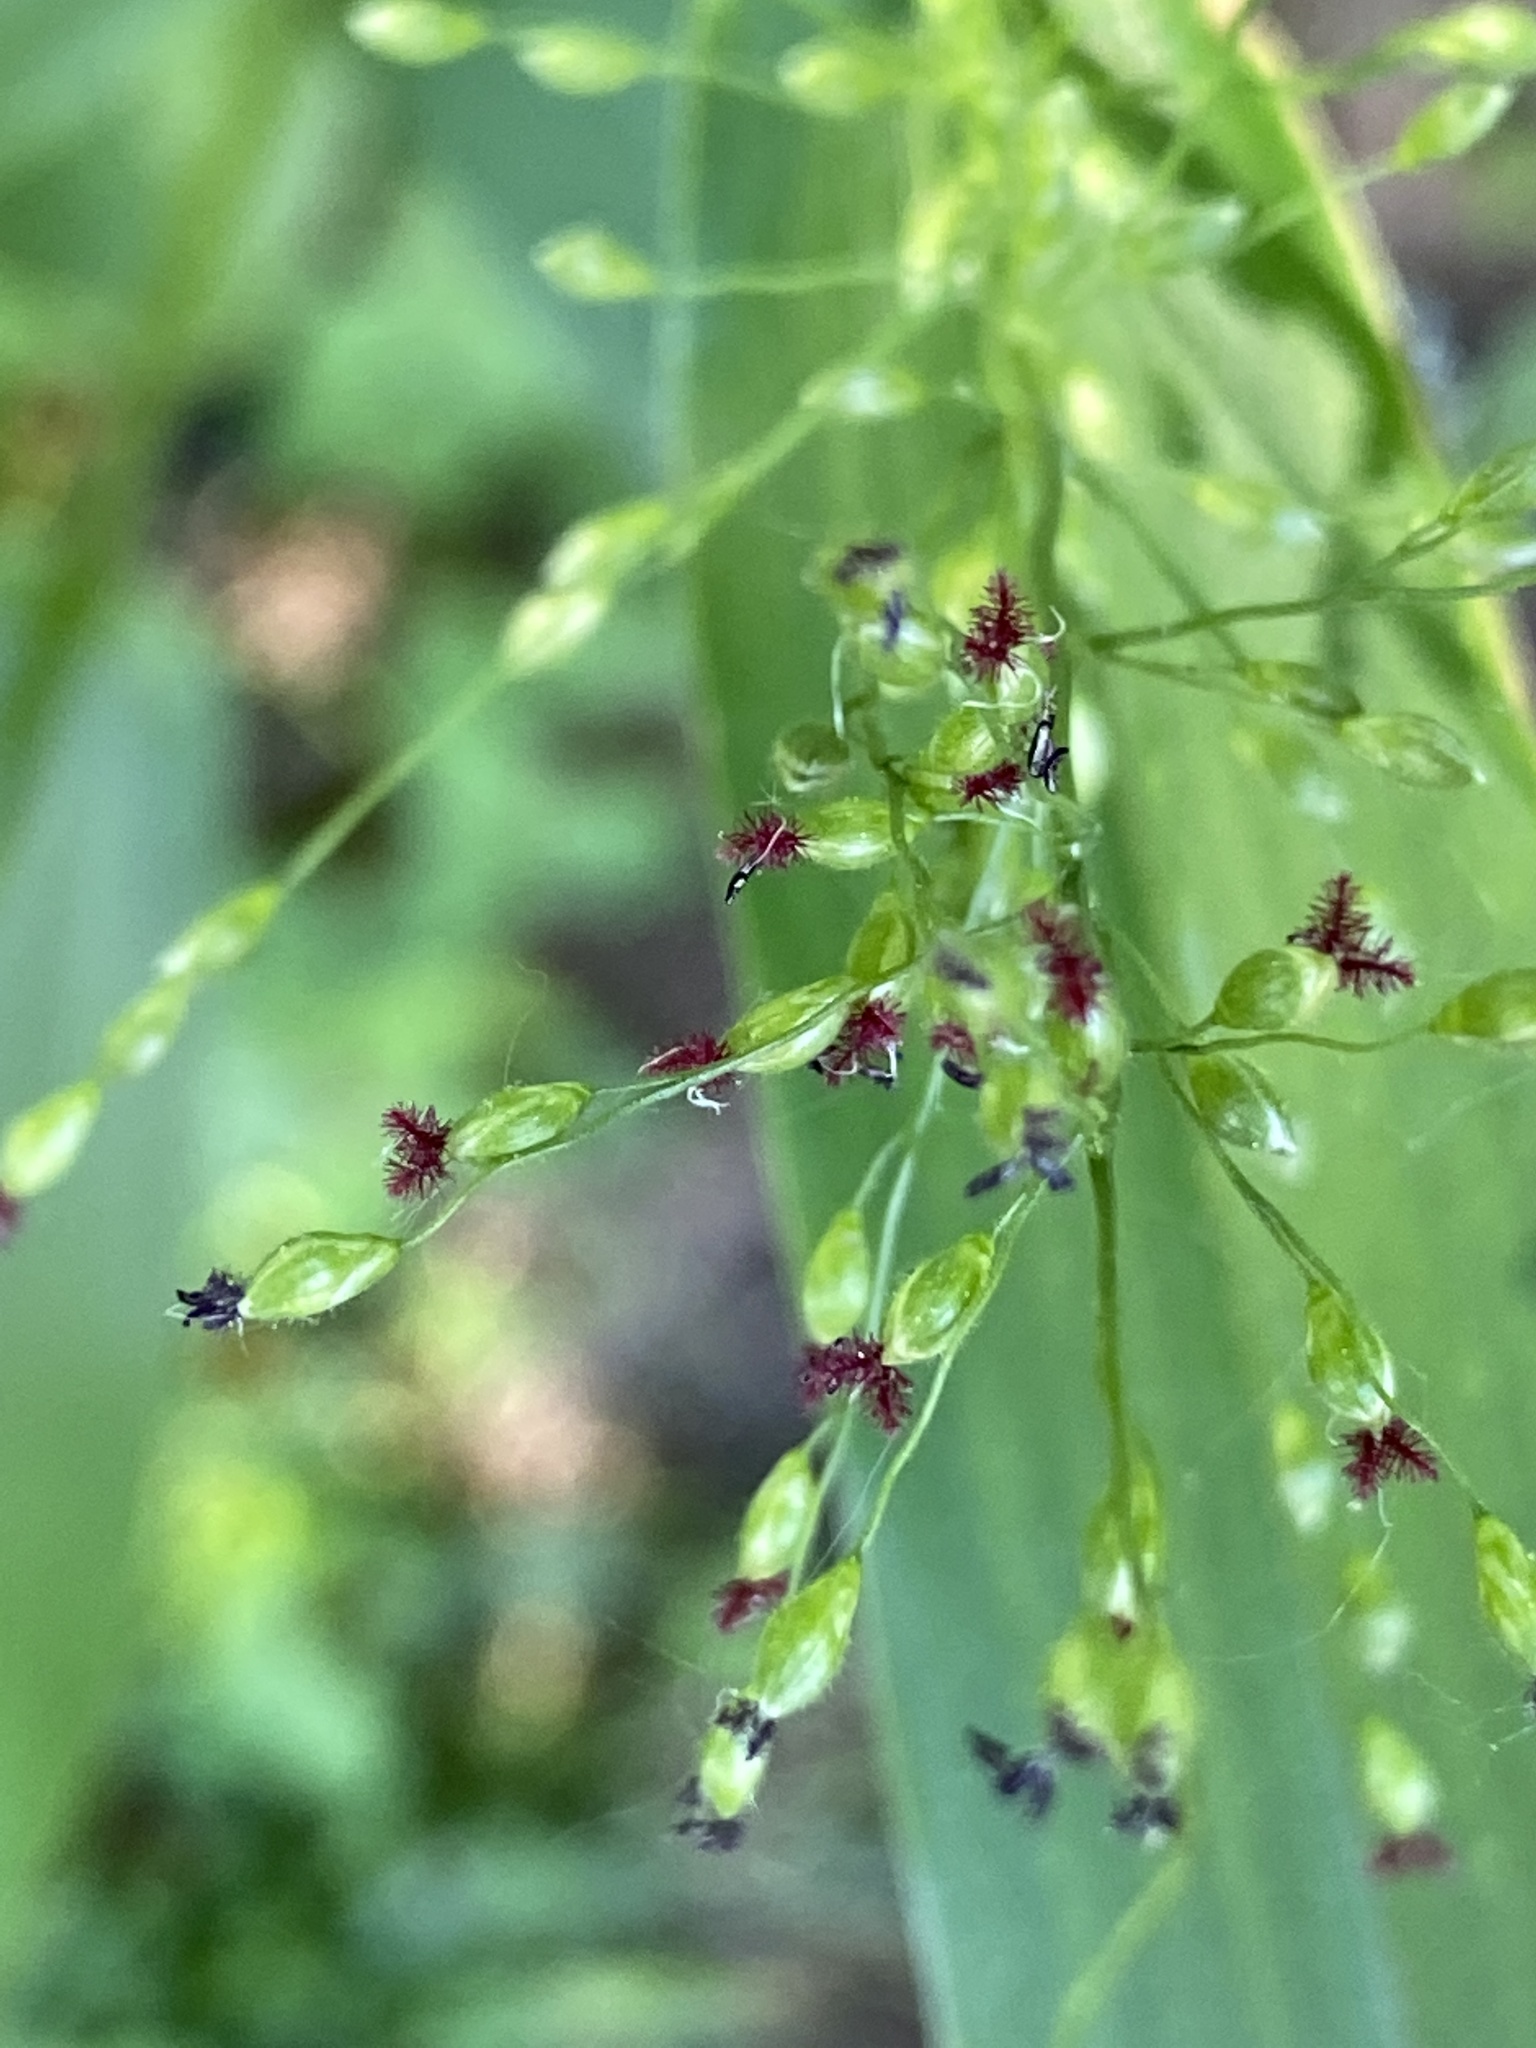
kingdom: Plantae
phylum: Tracheophyta
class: Liliopsida
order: Poales
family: Poaceae
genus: Dichanthelium
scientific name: Dichanthelium clandestinum
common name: Deer-tongue grass
